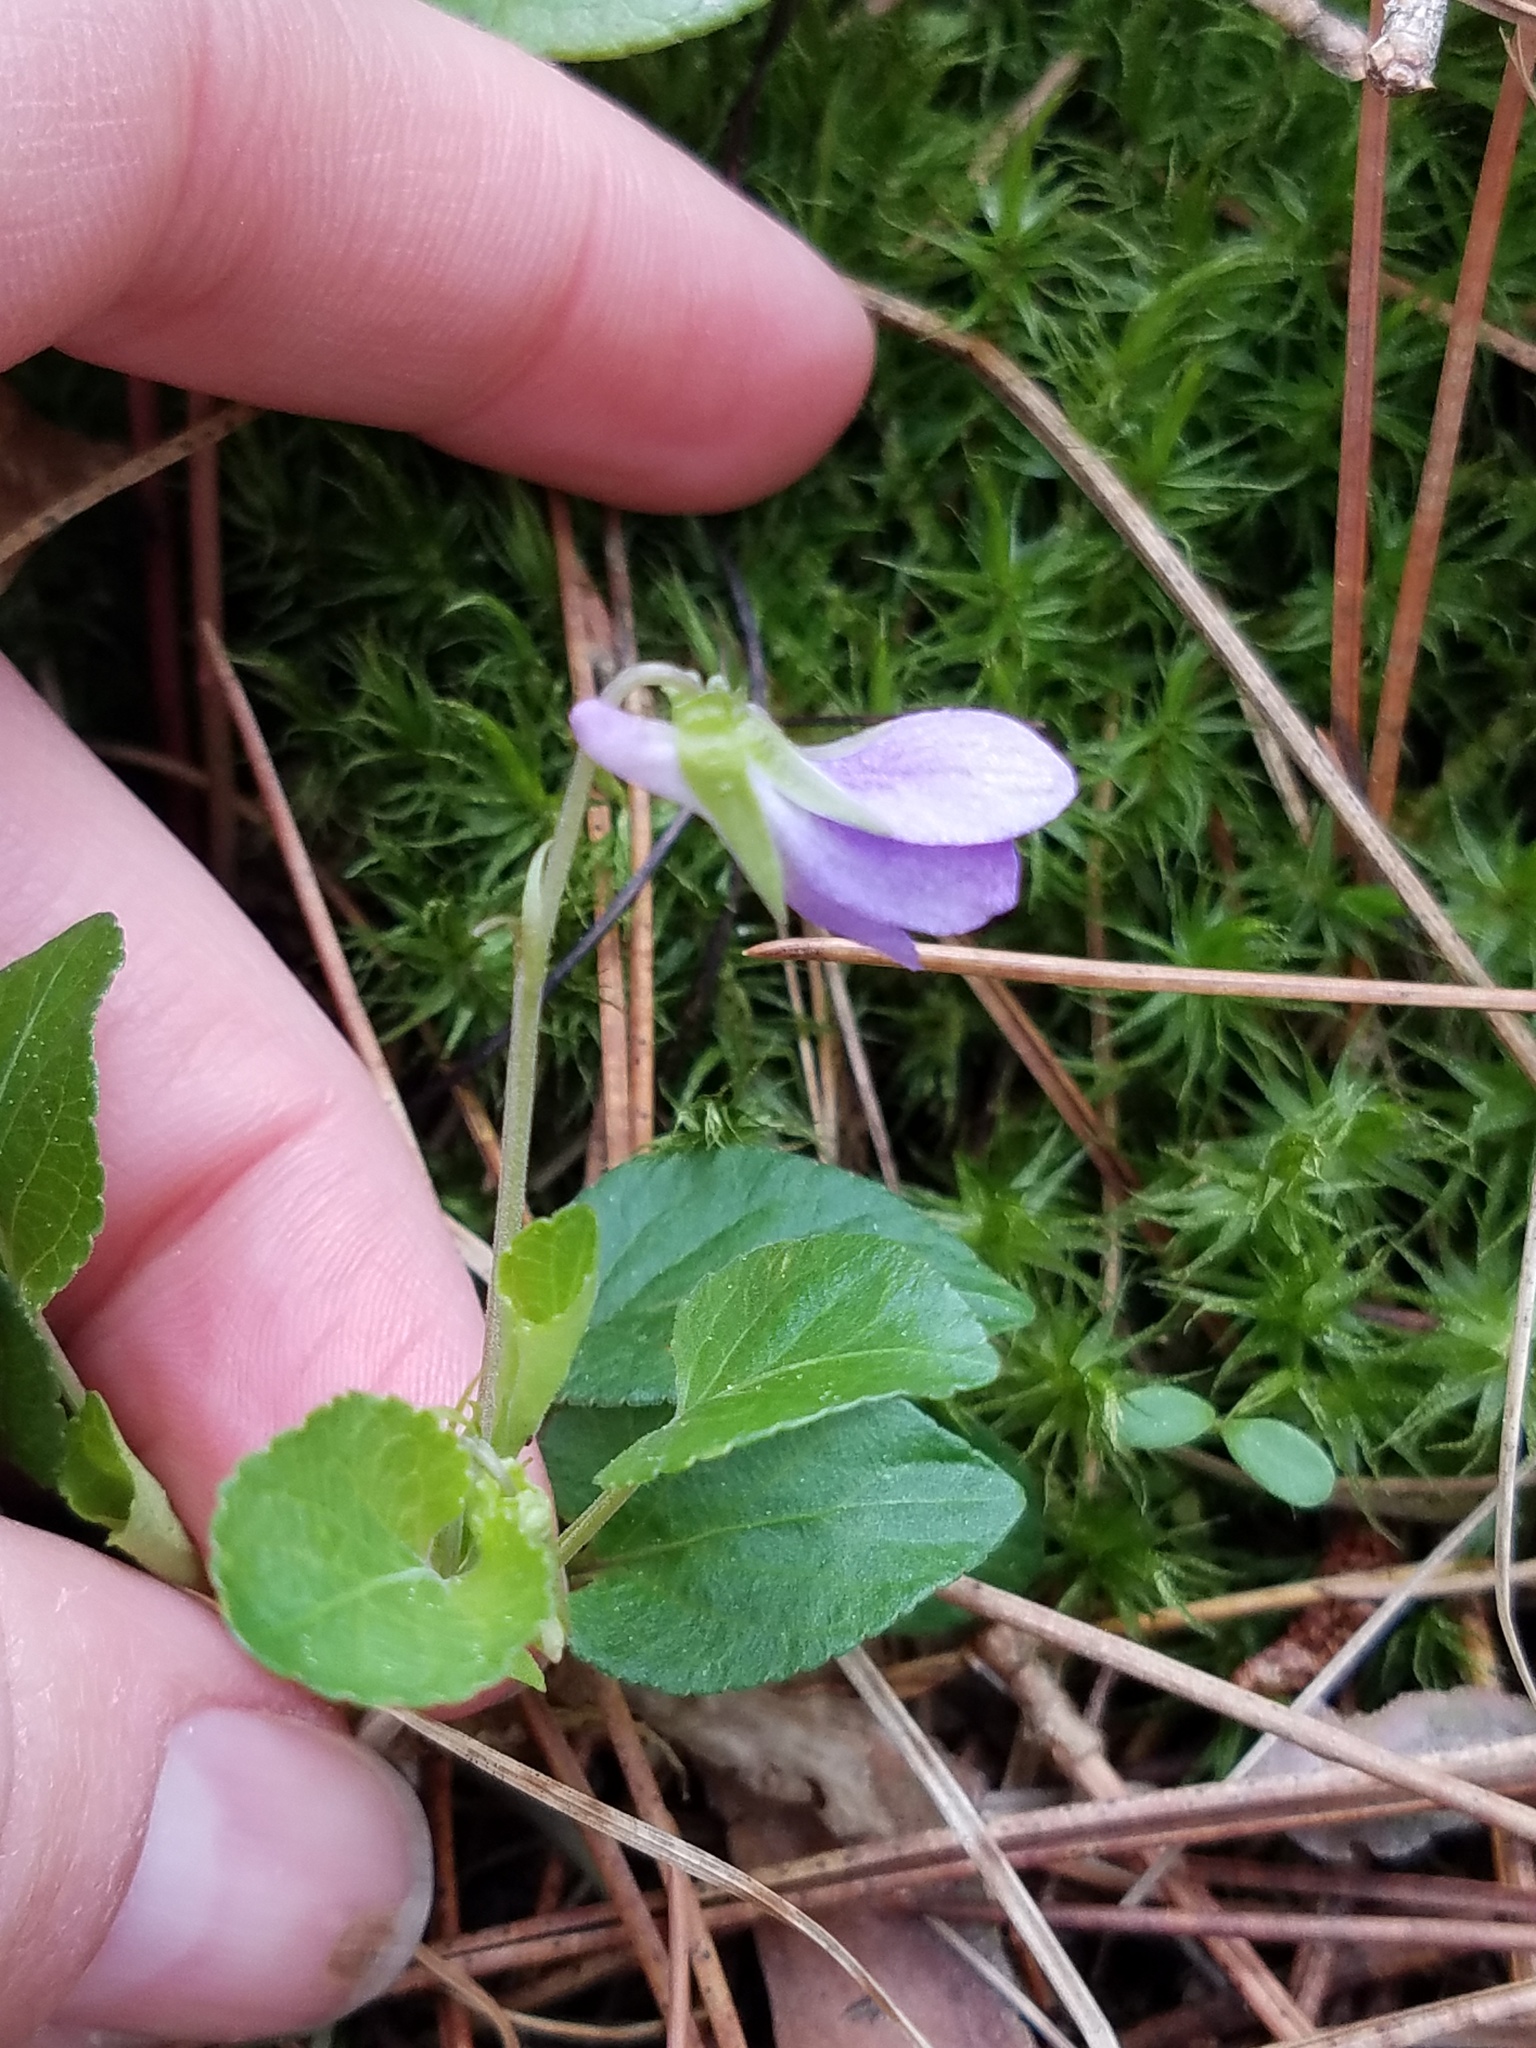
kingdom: Plantae
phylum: Tracheophyta
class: Magnoliopsida
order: Malpighiales
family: Violaceae
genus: Viola
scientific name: Viola adunca
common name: Sand violet
